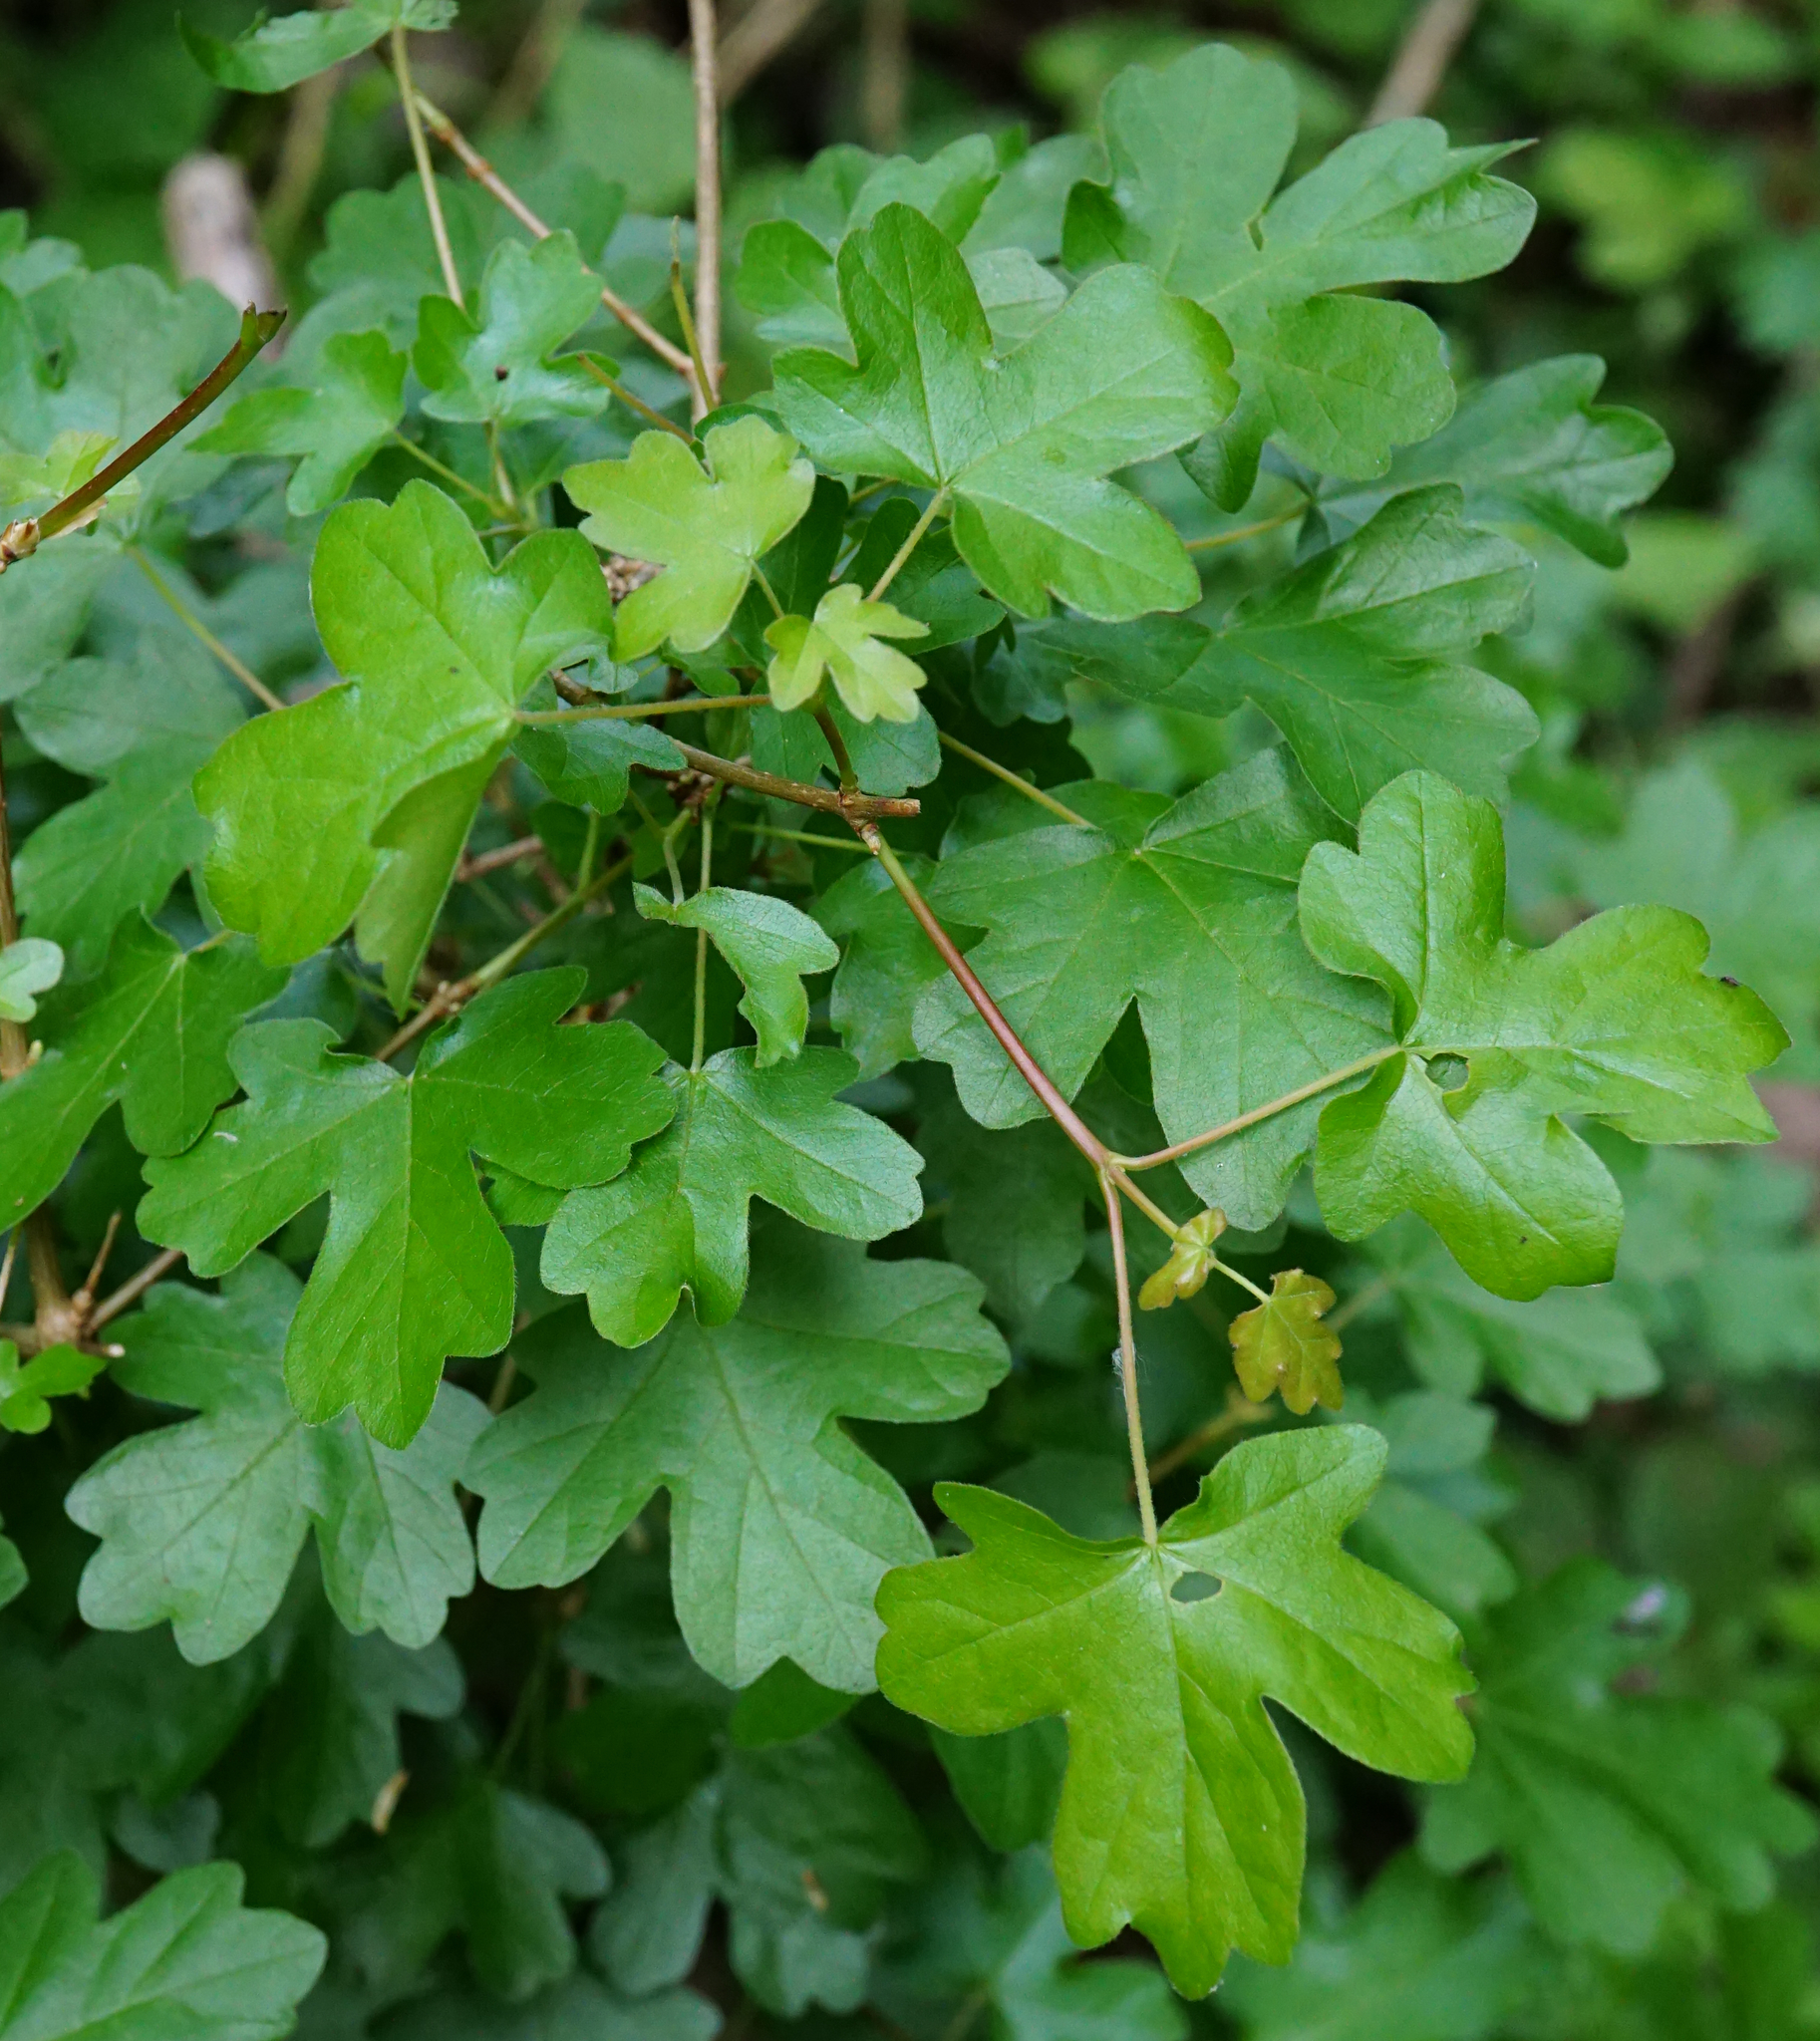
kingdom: Plantae
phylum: Tracheophyta
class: Magnoliopsida
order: Sapindales
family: Sapindaceae
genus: Acer
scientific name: Acer campestre
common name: Field maple
